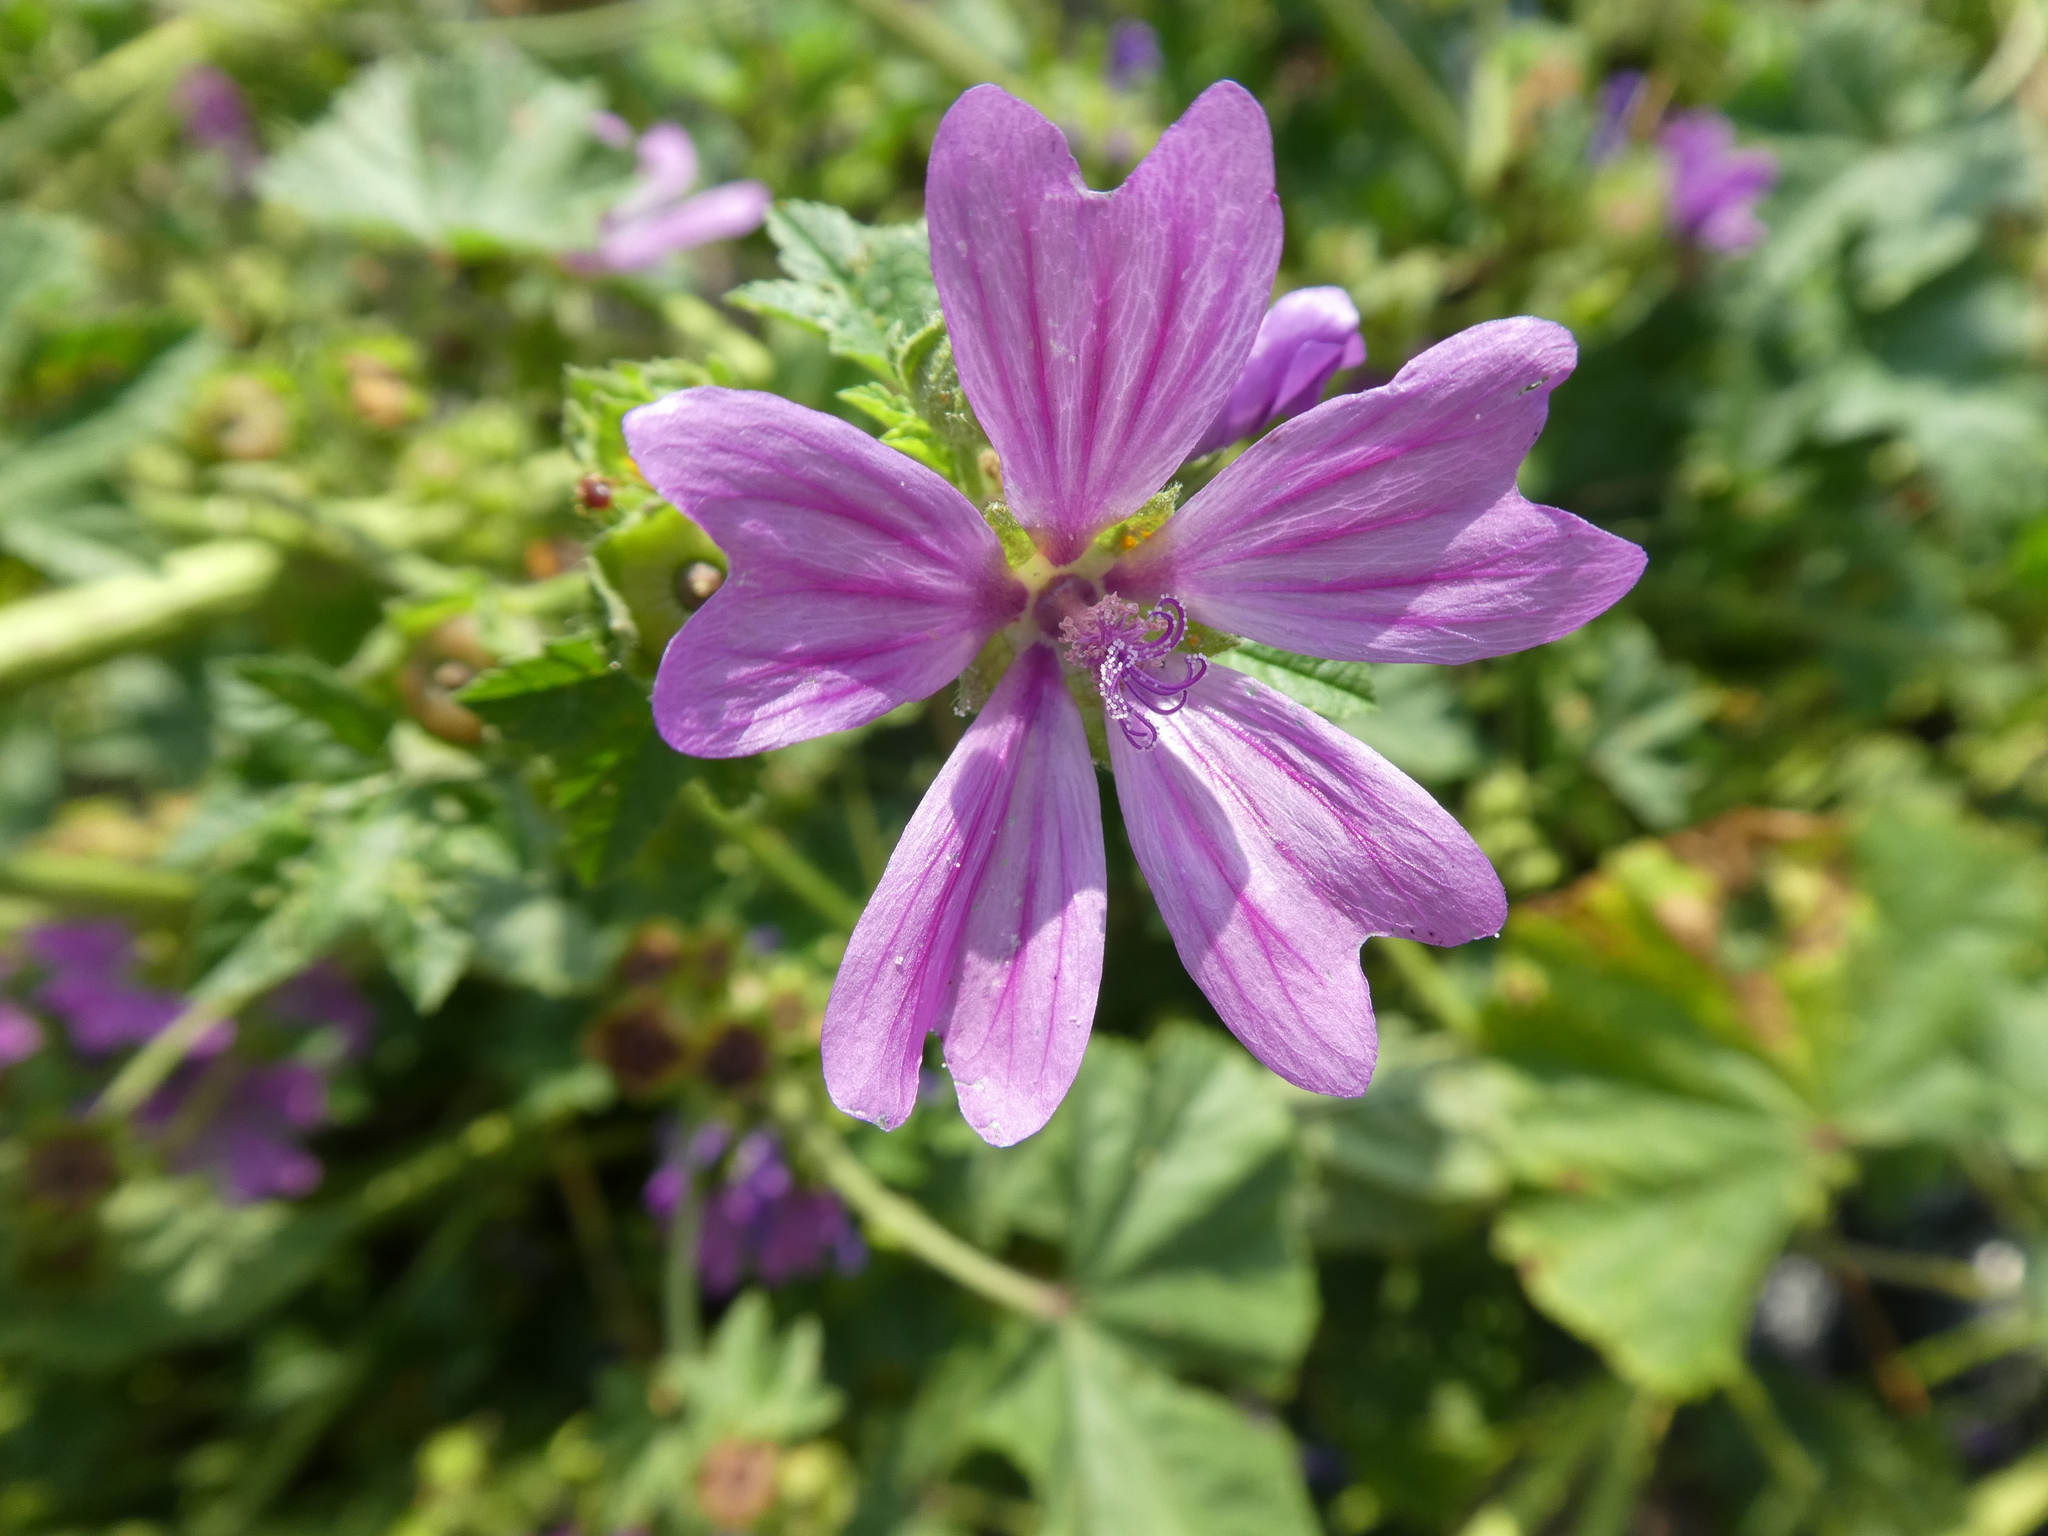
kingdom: Plantae
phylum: Tracheophyta
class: Magnoliopsida
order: Malvales
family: Malvaceae
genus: Malva
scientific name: Malva sylvestris
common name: Common mallow
